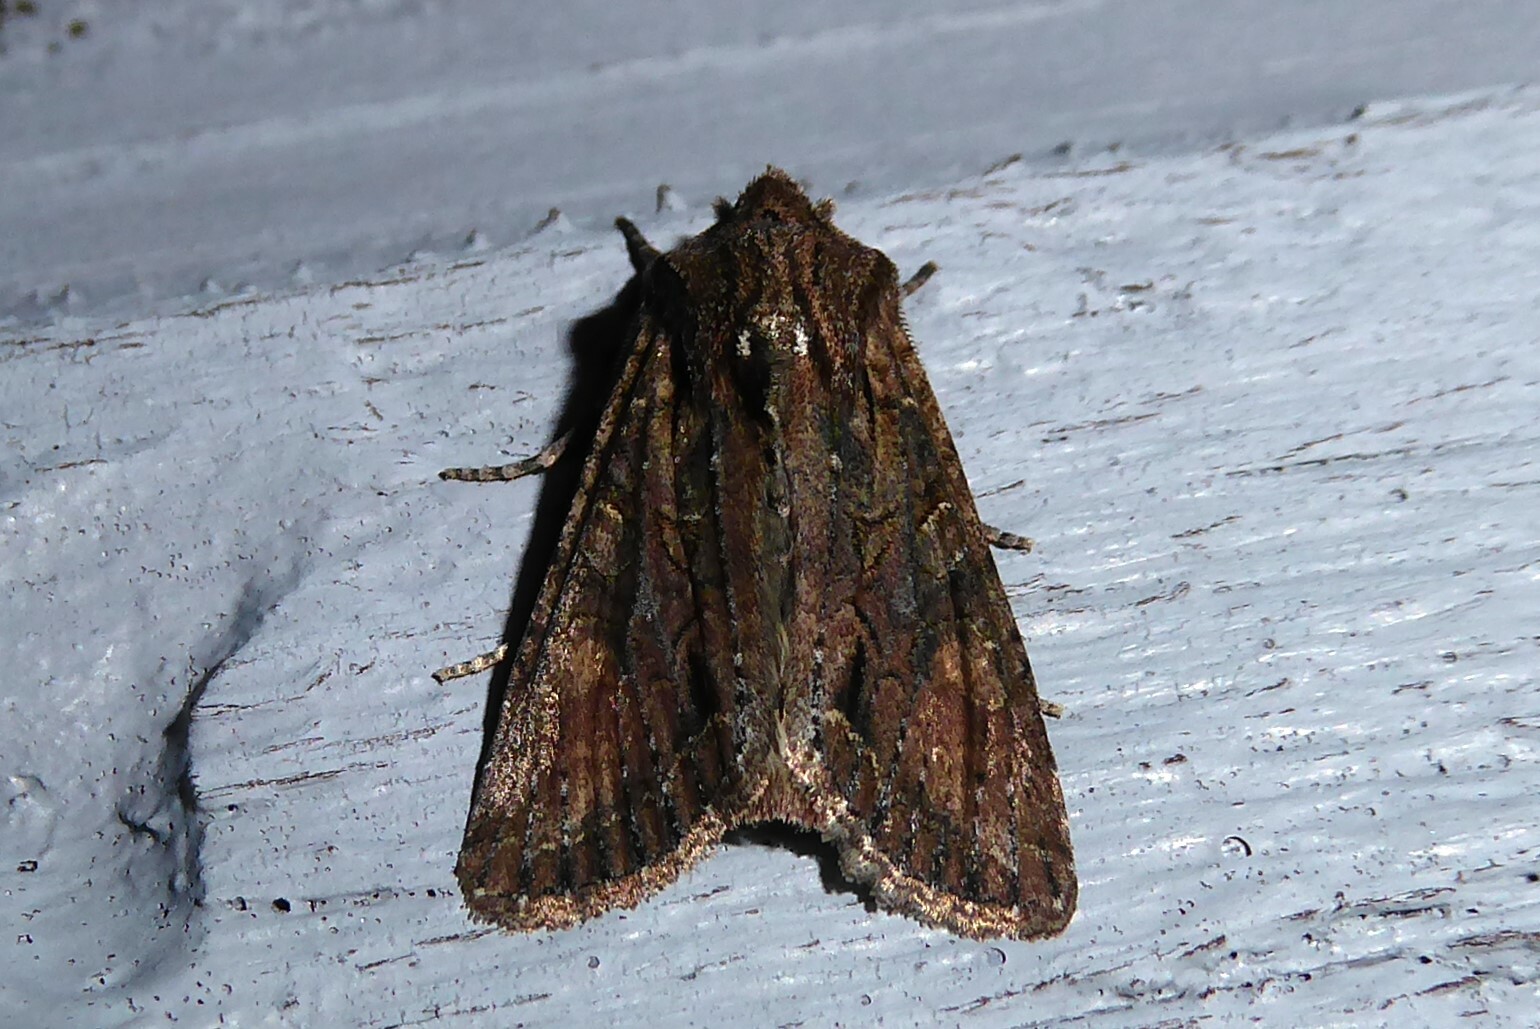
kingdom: Animalia
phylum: Arthropoda
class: Insecta
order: Lepidoptera
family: Noctuidae
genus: Ichneutica
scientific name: Ichneutica mutans
